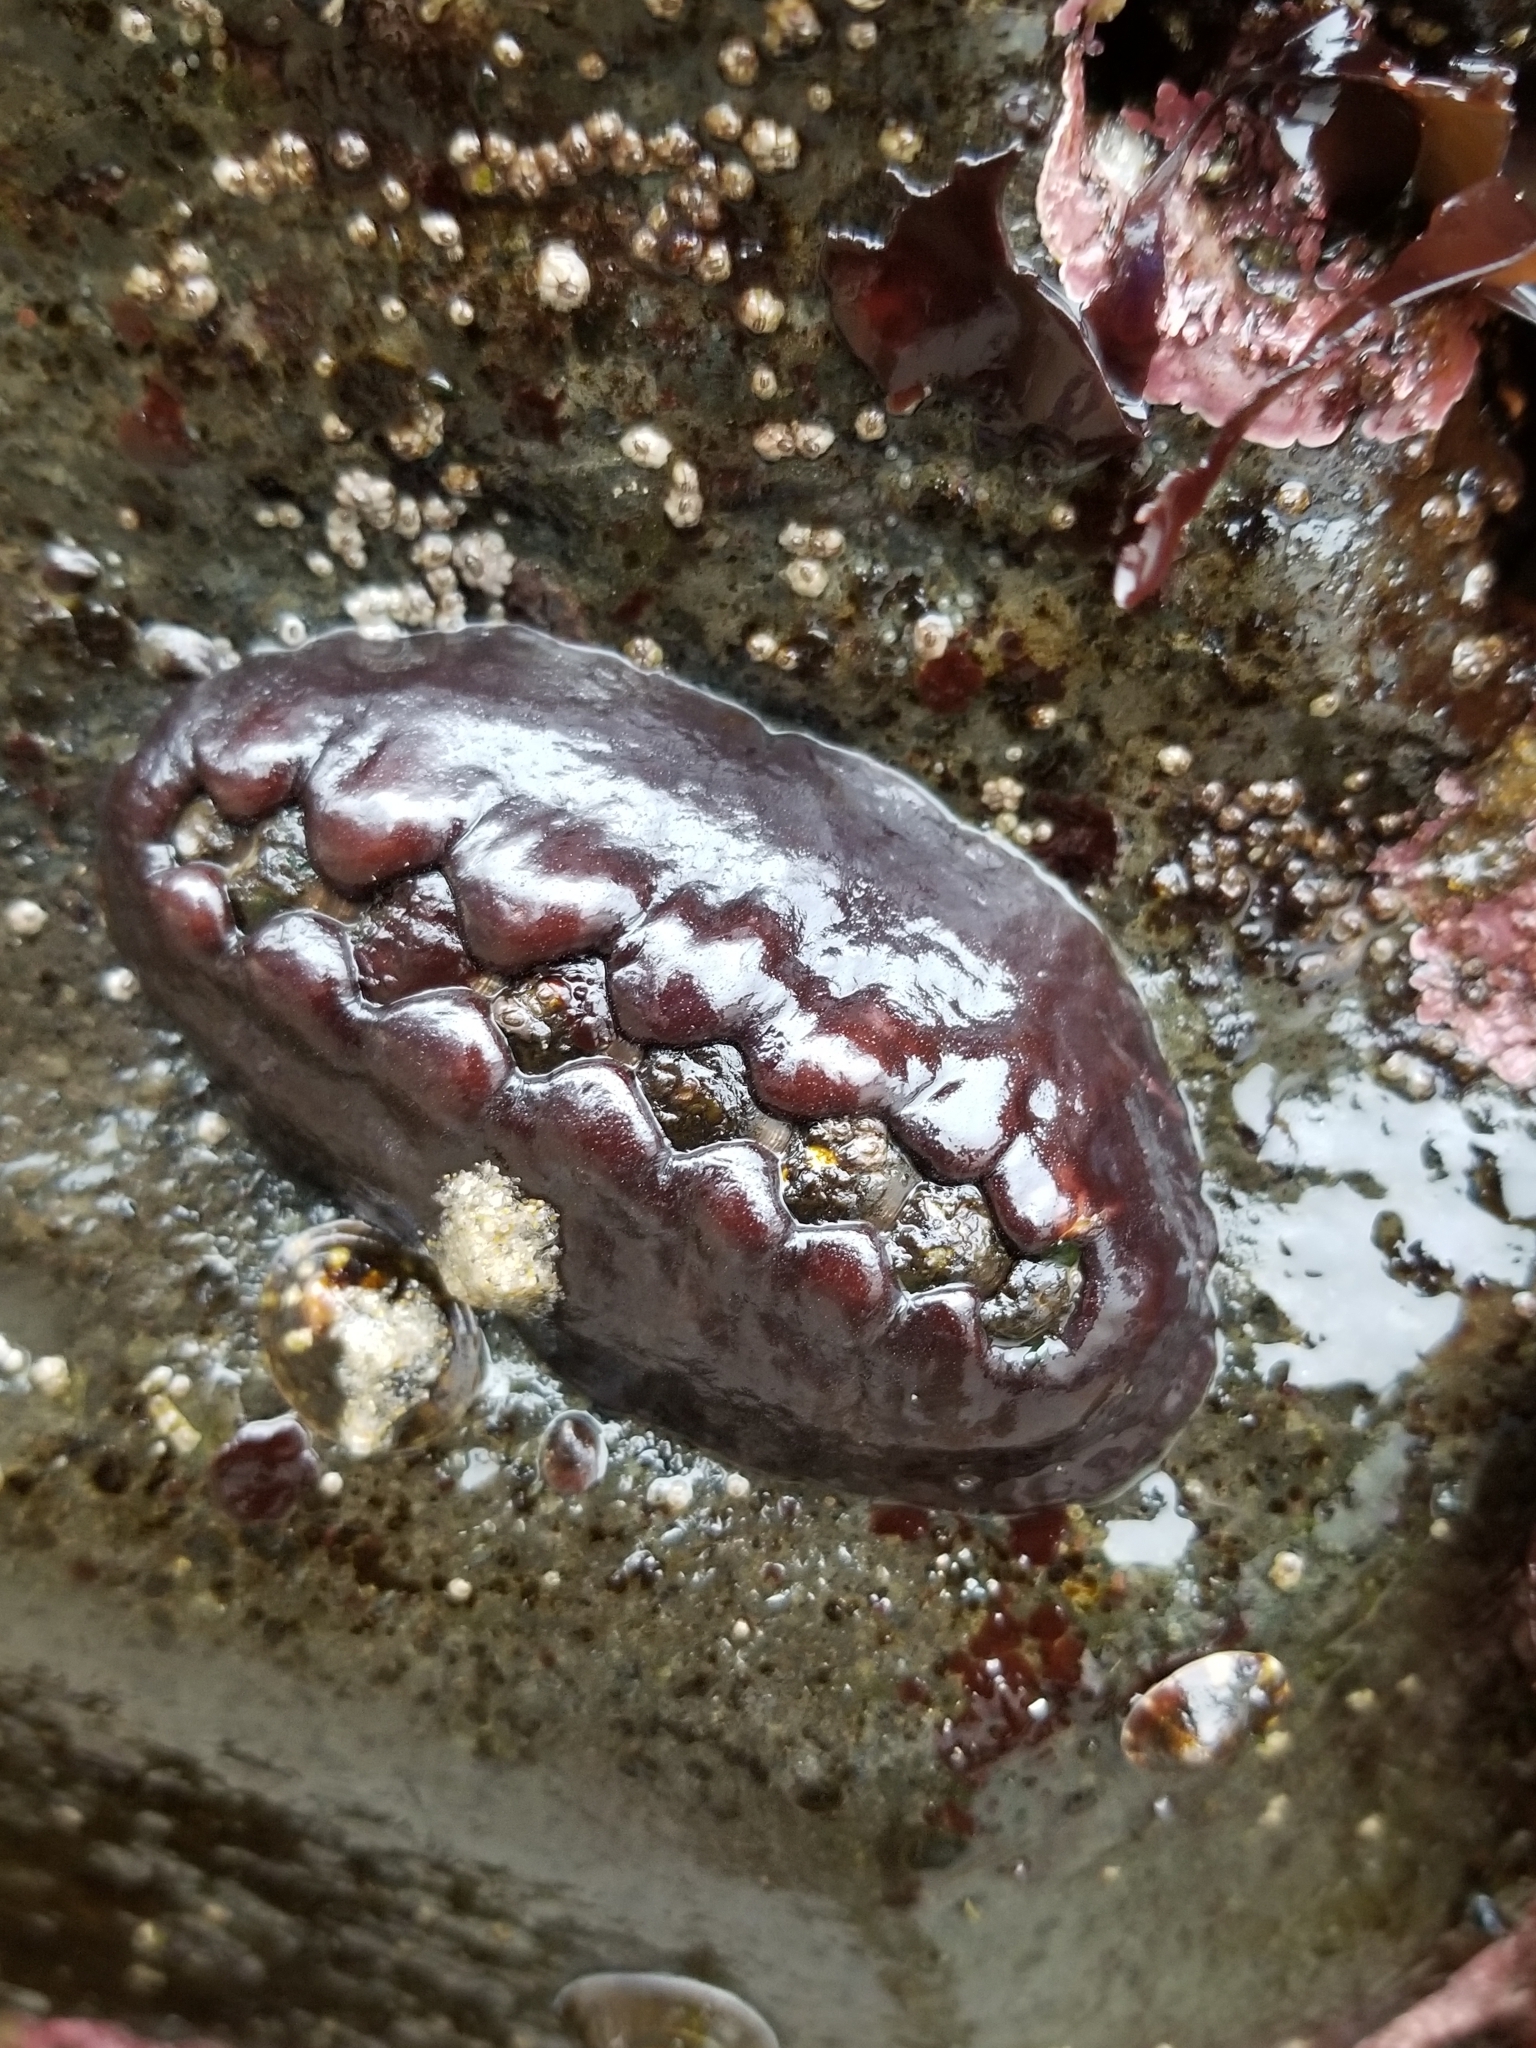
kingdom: Animalia
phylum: Mollusca
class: Polyplacophora
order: Chitonida
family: Mopaliidae
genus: Katharina
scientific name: Katharina tunicata
